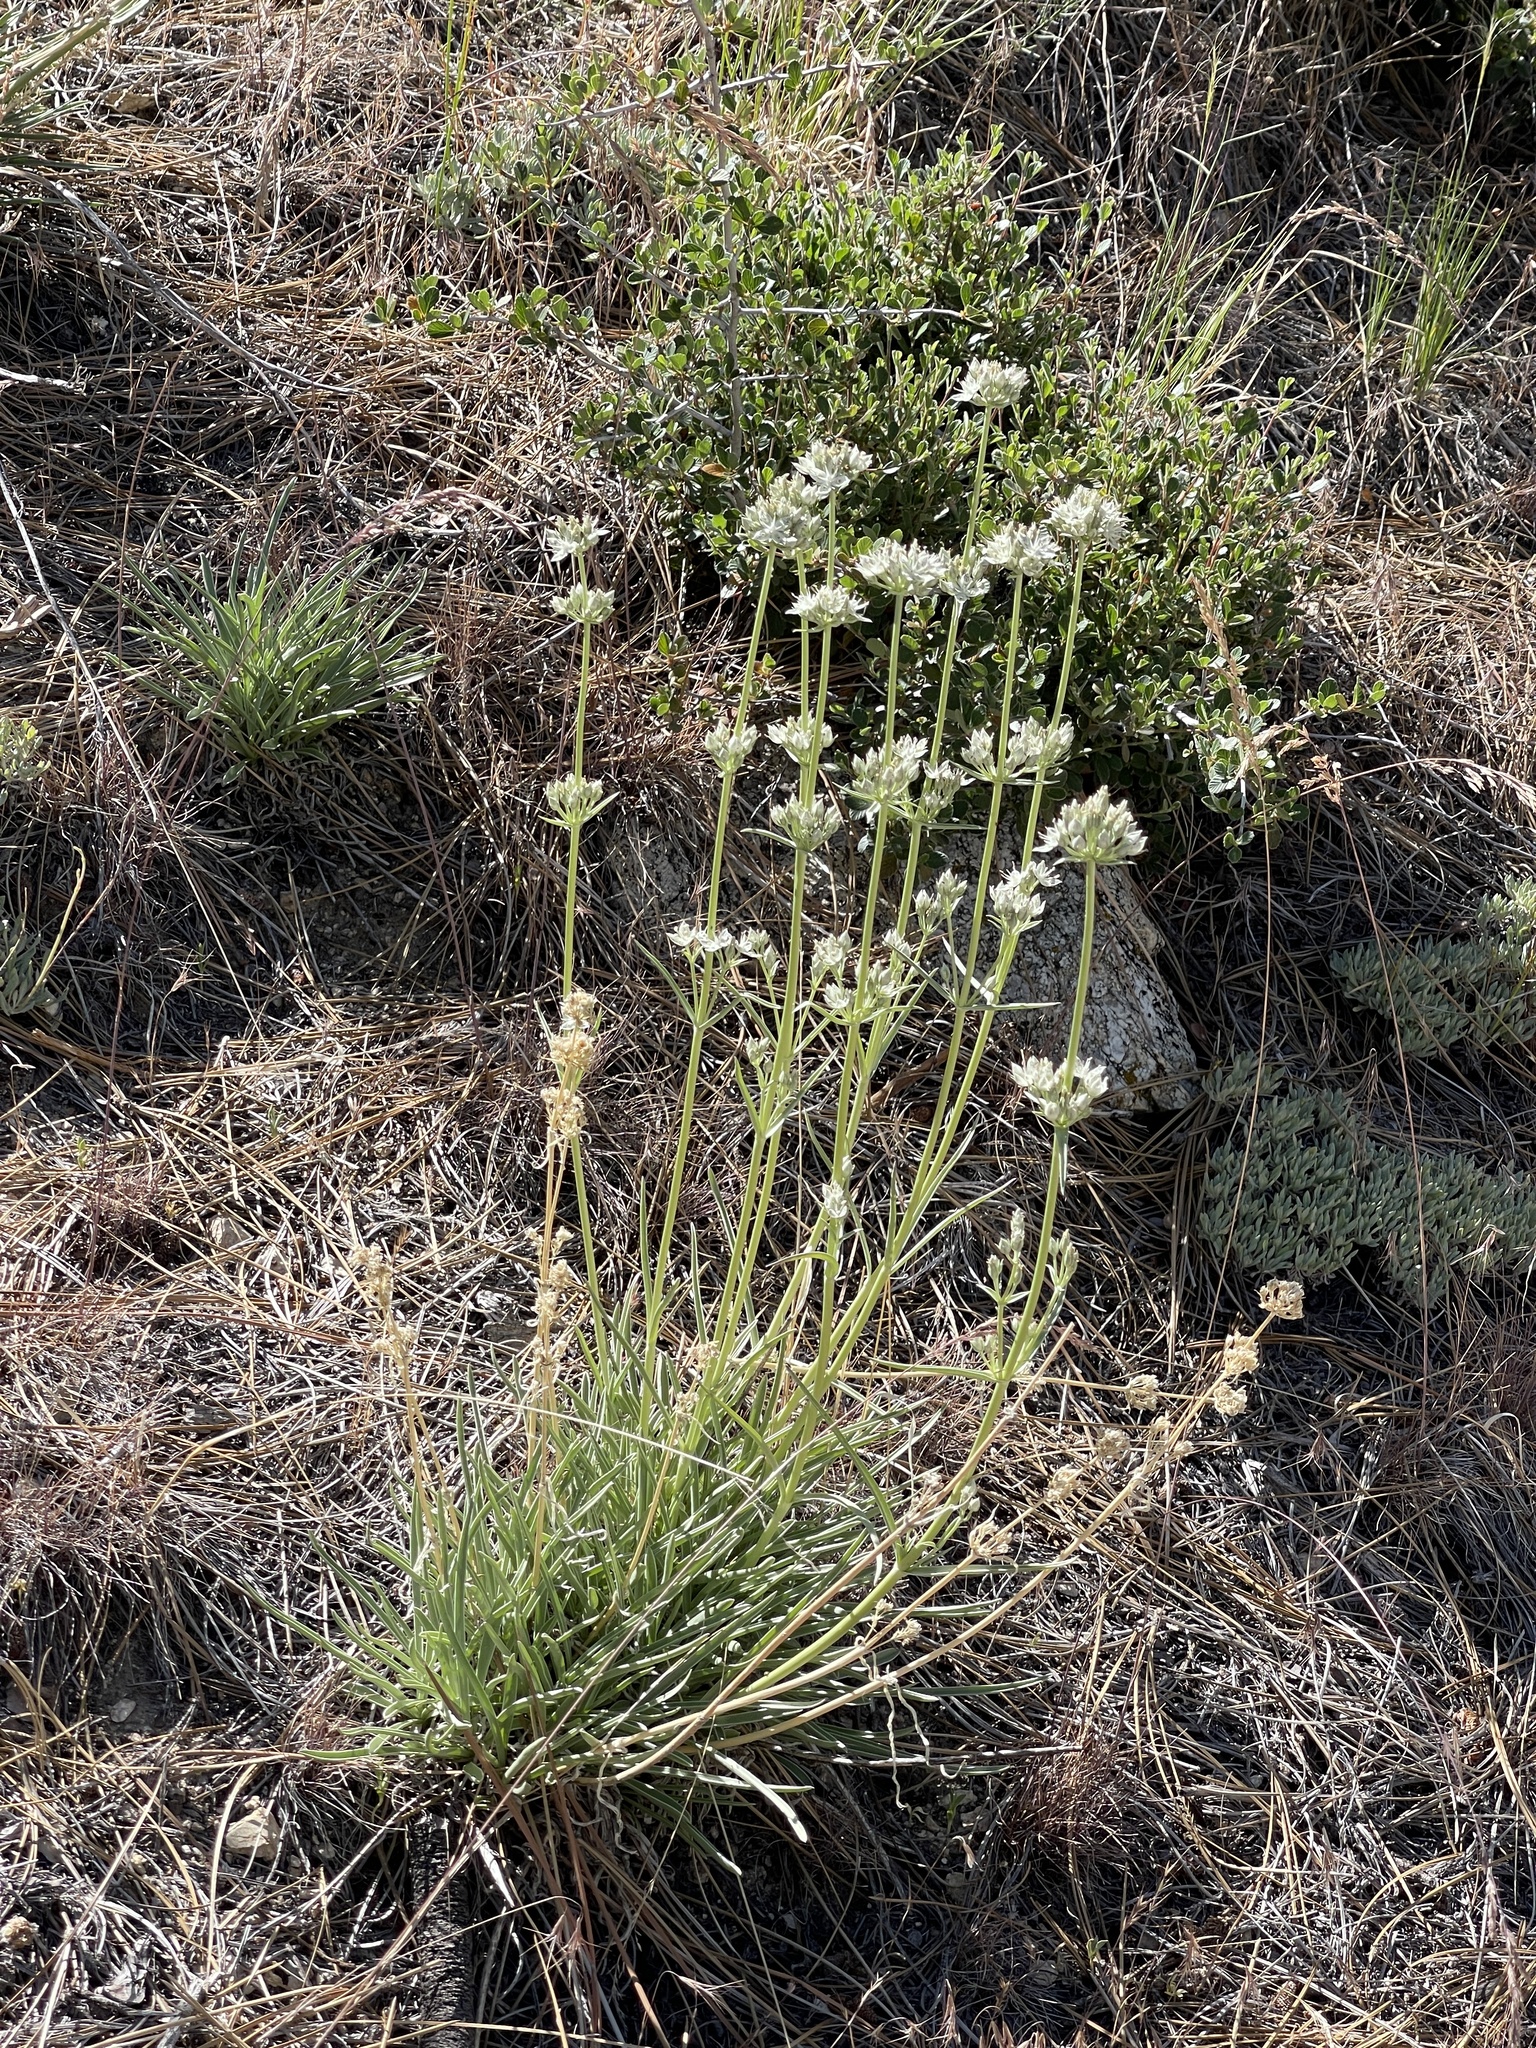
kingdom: Plantae
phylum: Tracheophyta
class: Magnoliopsida
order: Gentianales
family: Gentianaceae
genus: Frasera
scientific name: Frasera neglecta
